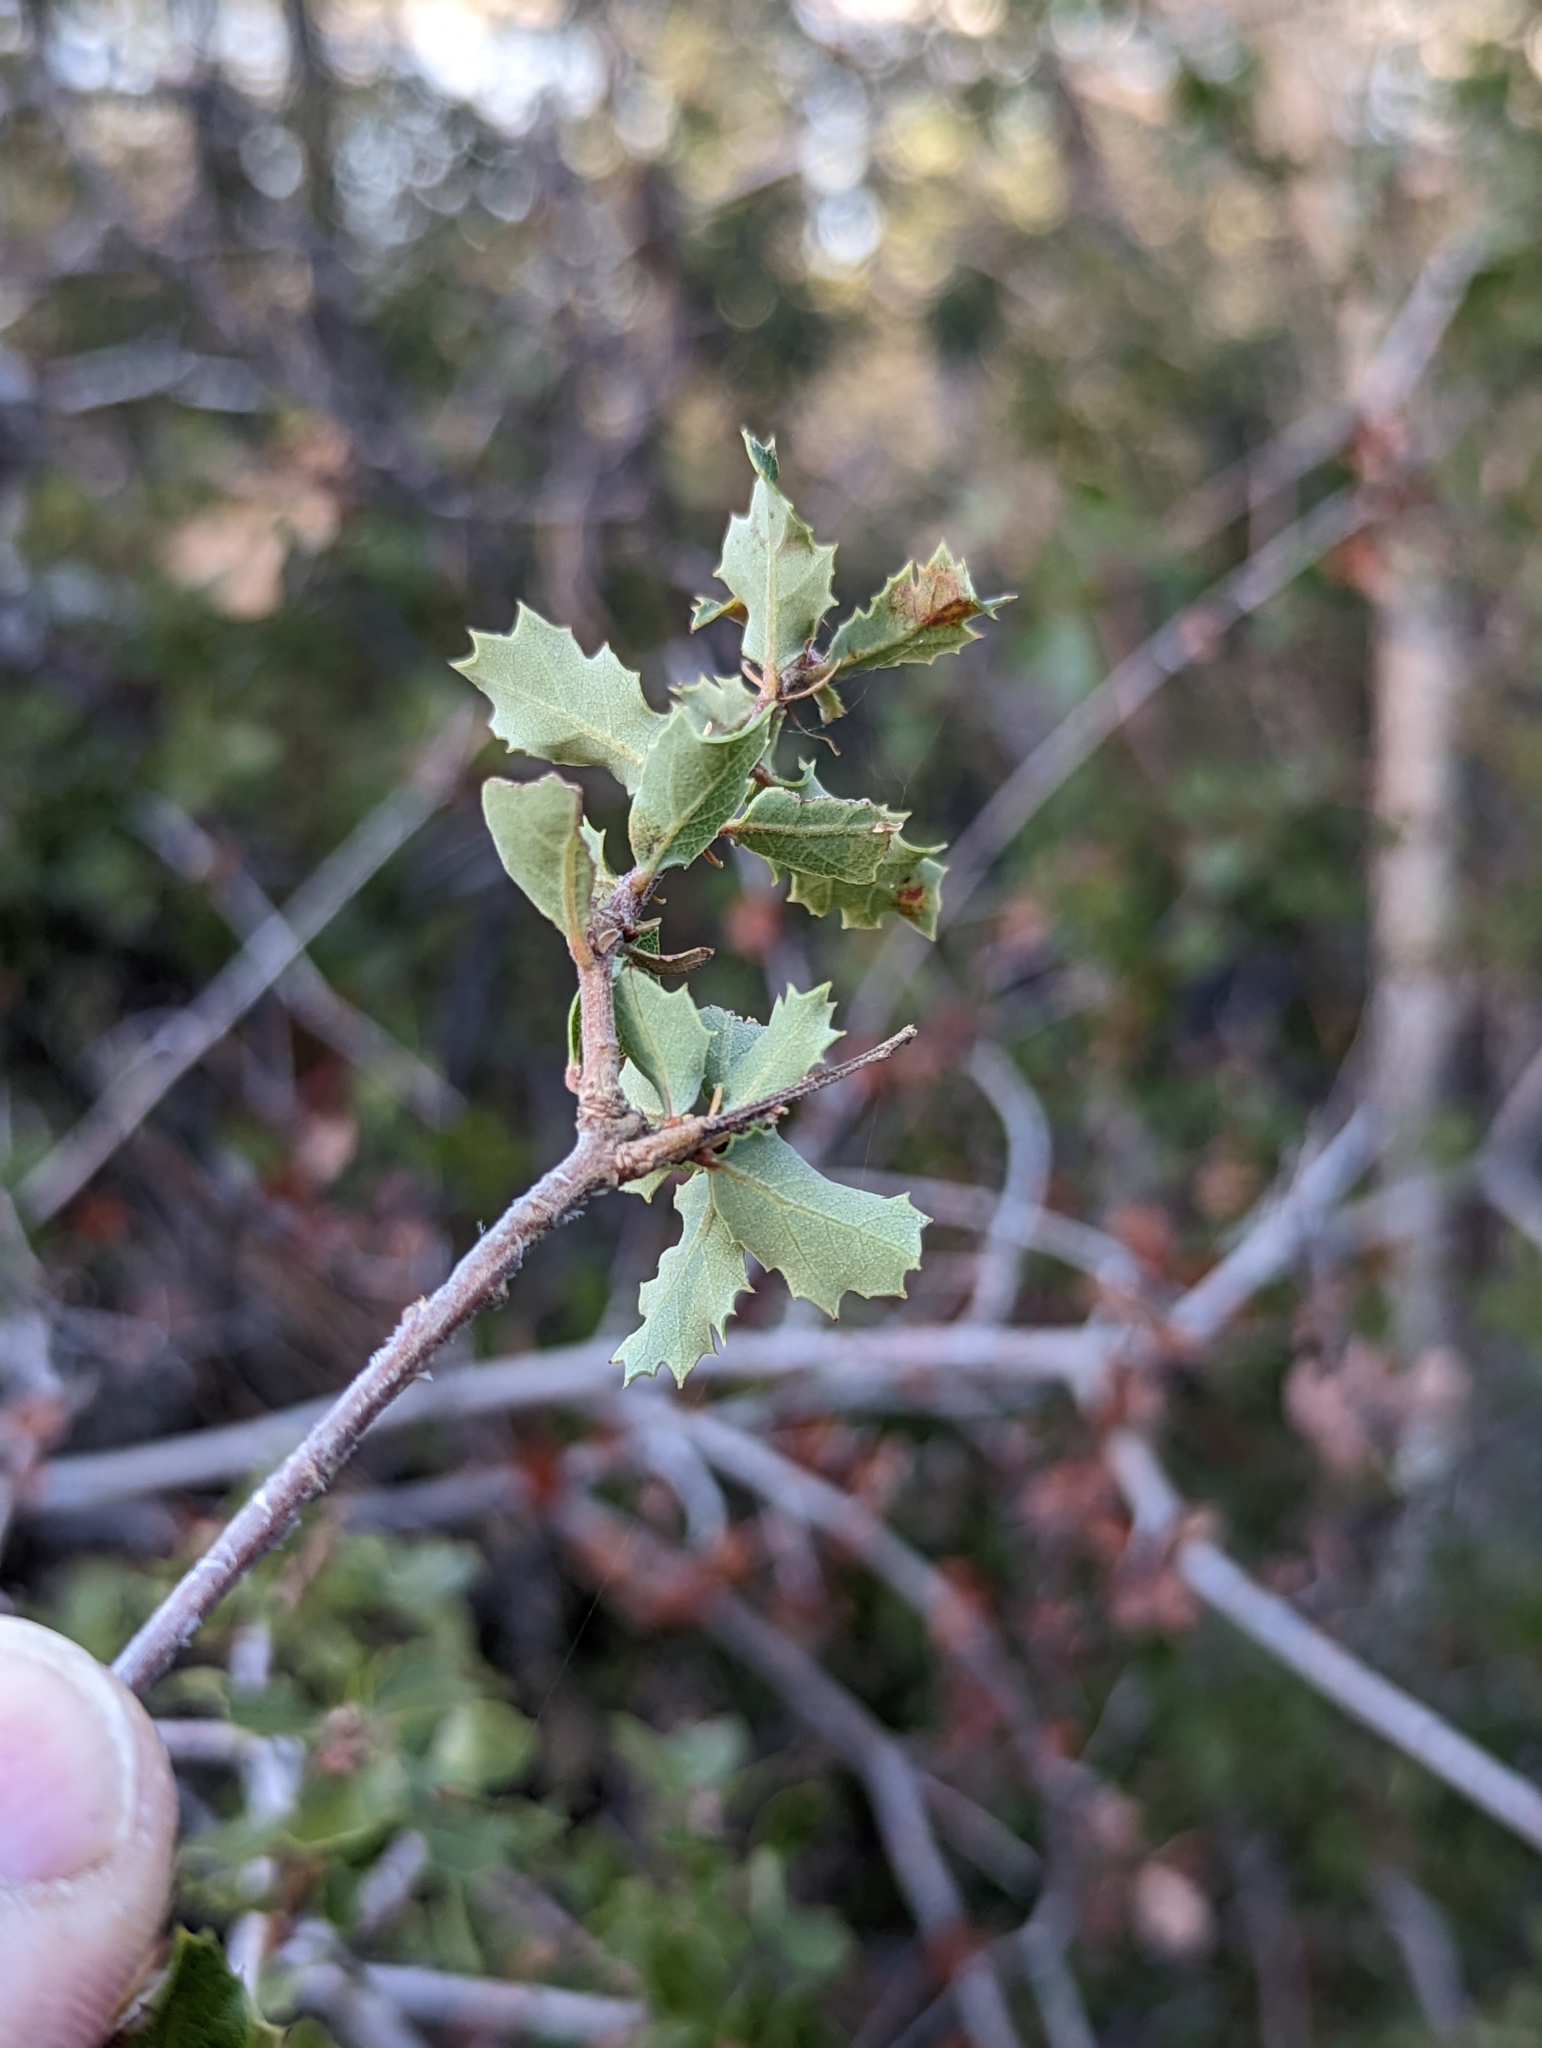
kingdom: Plantae
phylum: Tracheophyta
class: Magnoliopsida
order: Fagales
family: Fagaceae
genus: Quercus
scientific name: Quercus berberidifolia
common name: California scrub oak
